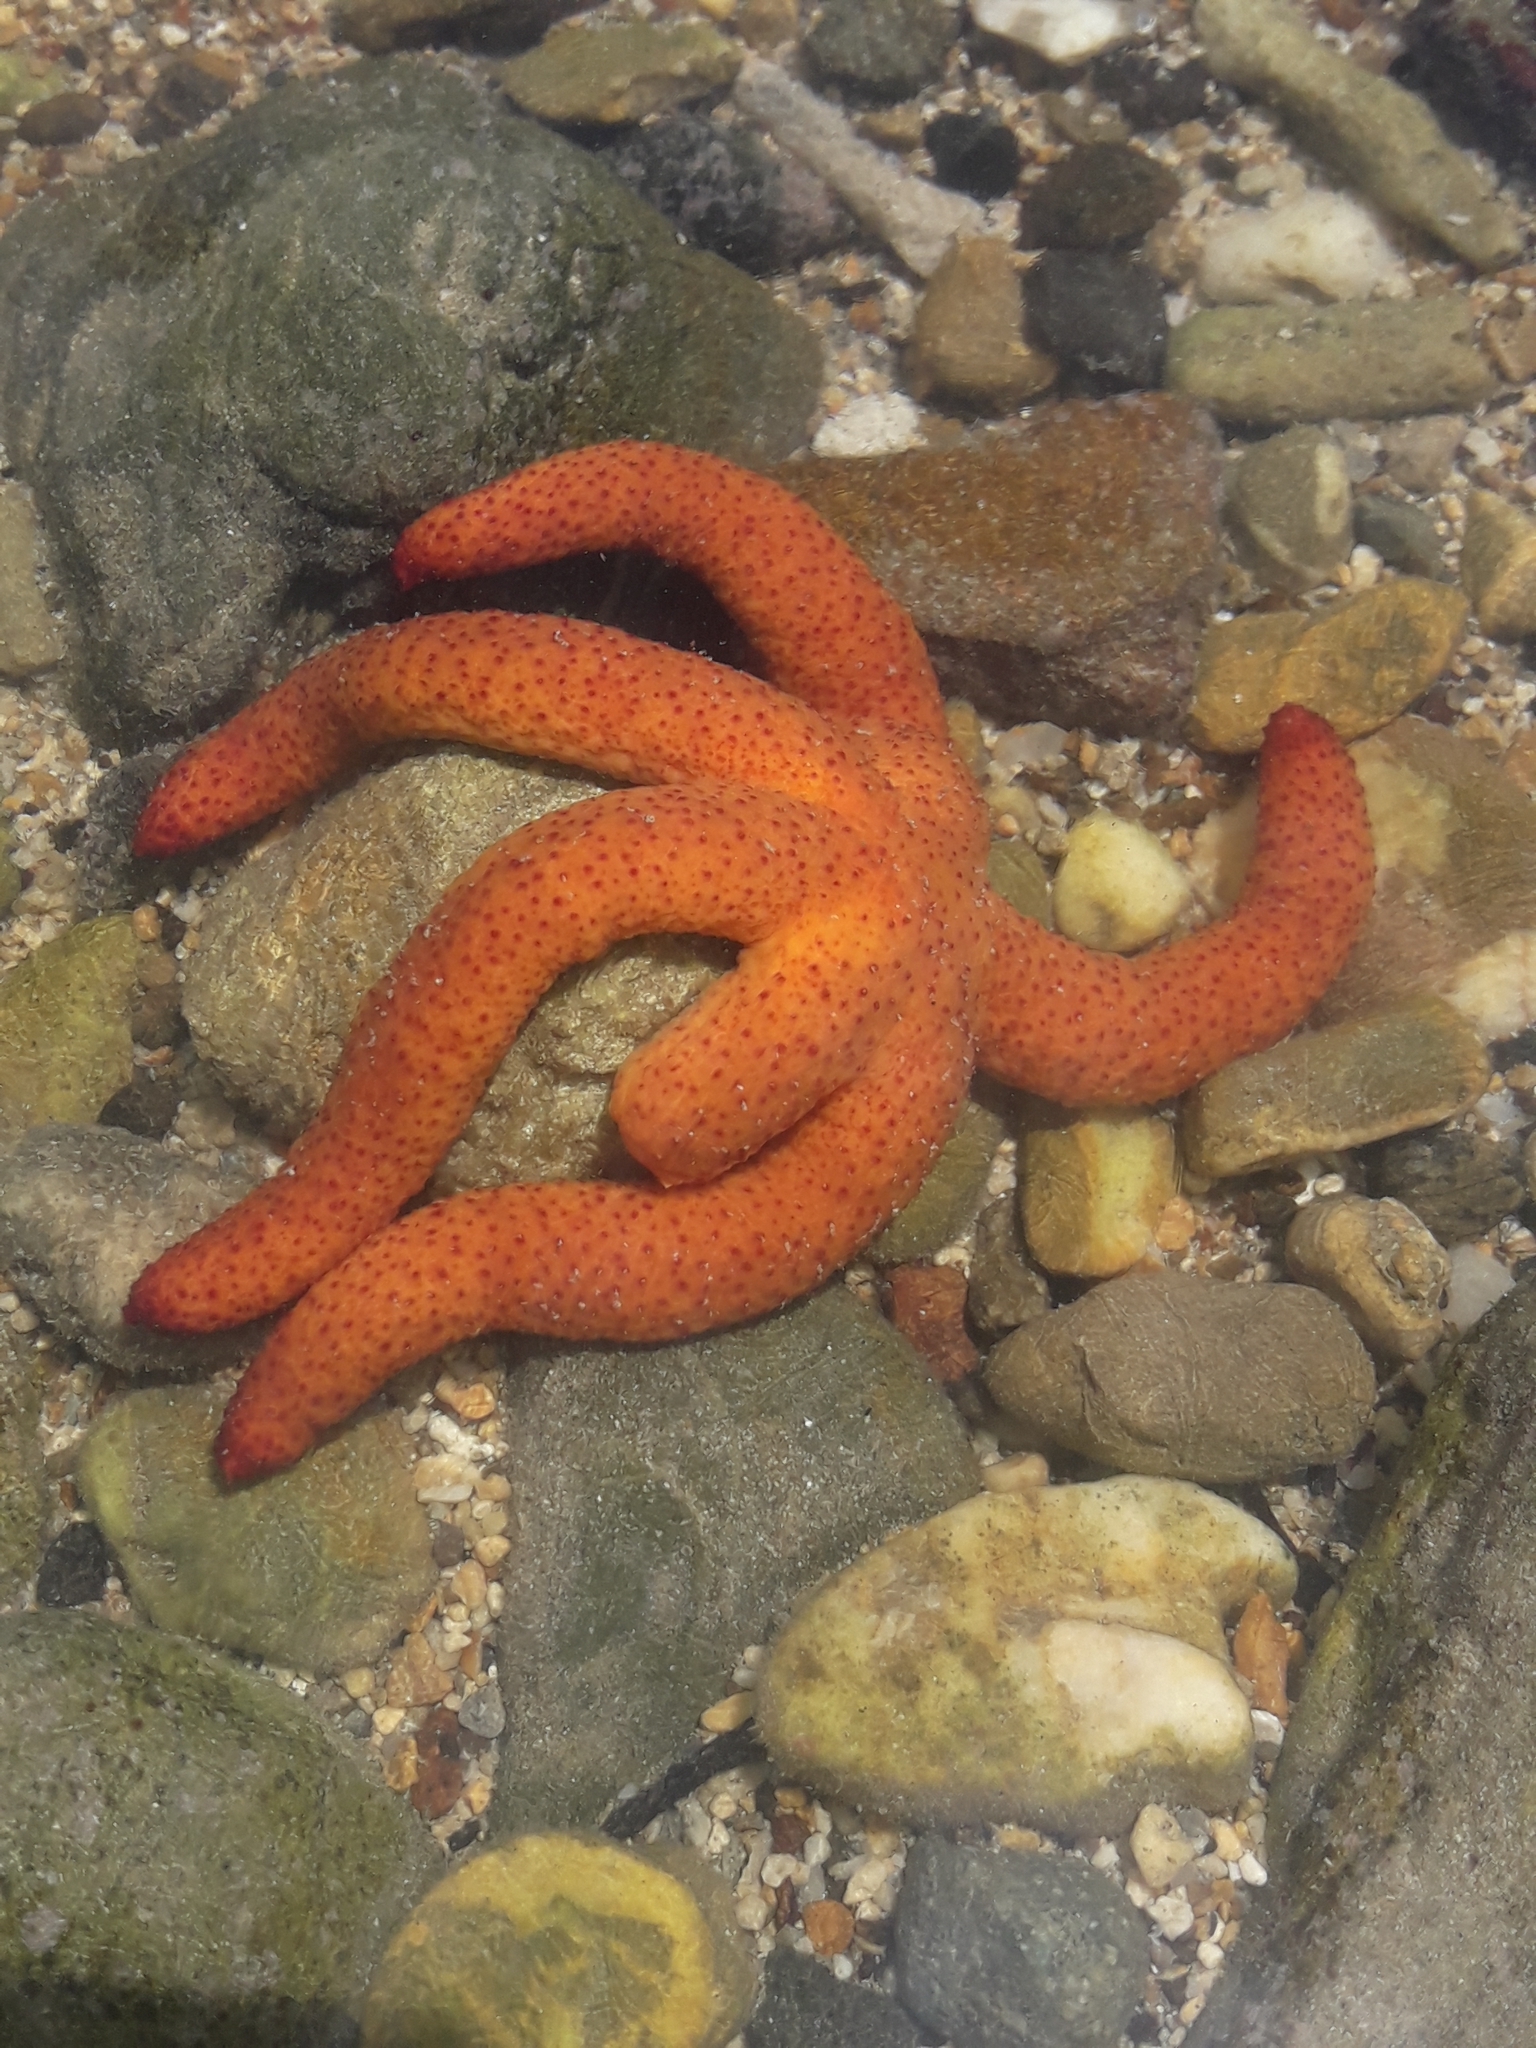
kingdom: Animalia
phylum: Echinodermata
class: Asteroidea
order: Spinulosida
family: Echinasteridae
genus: Echinaster
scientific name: Echinaster luzonicus
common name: Luzon seastar
